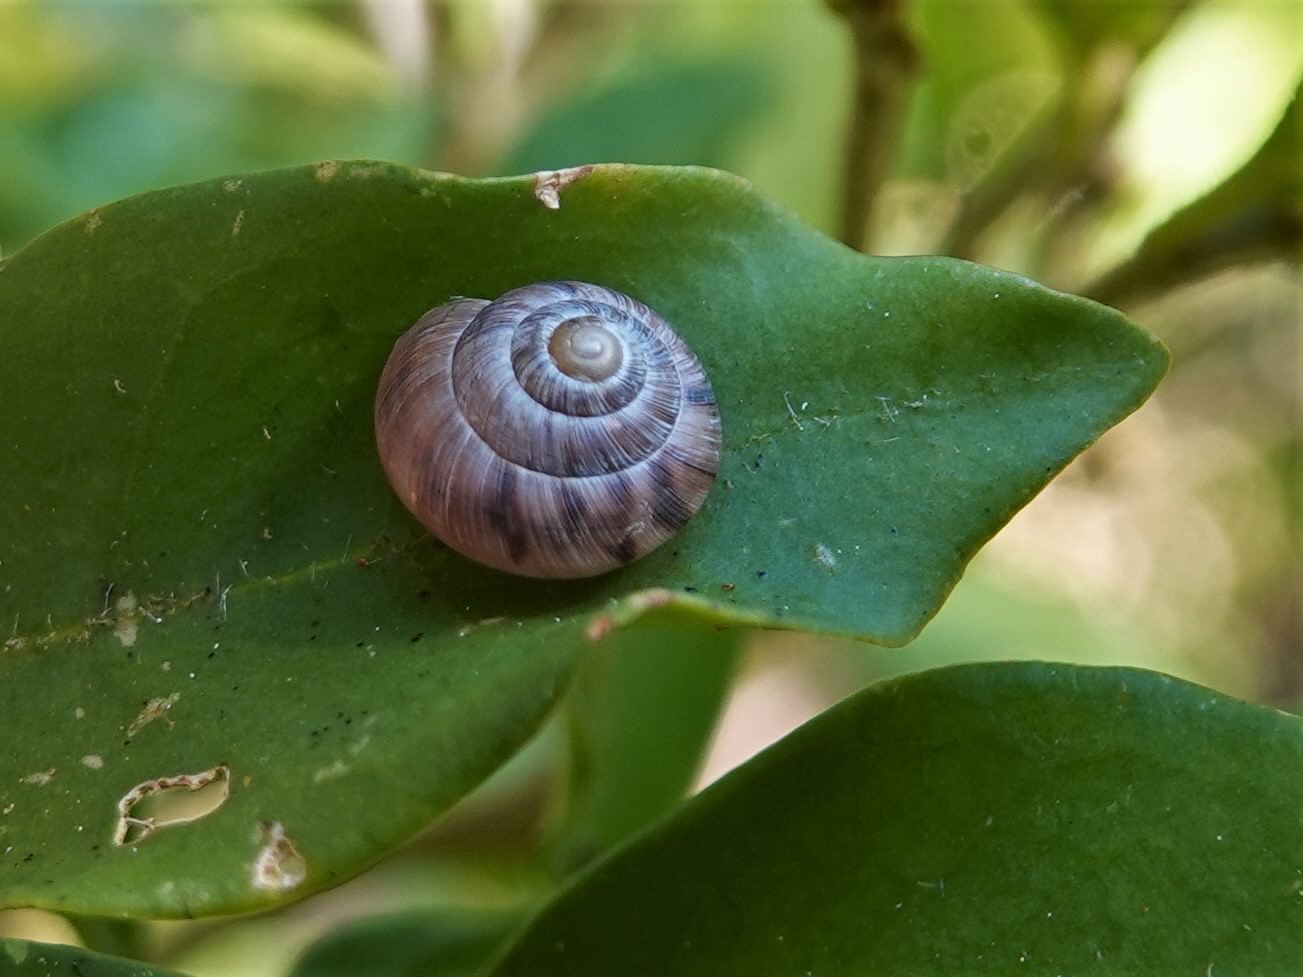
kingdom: Animalia
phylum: Mollusca
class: Gastropoda
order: Stylommatophora
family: Charopidae
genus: Serpho
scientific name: Serpho
